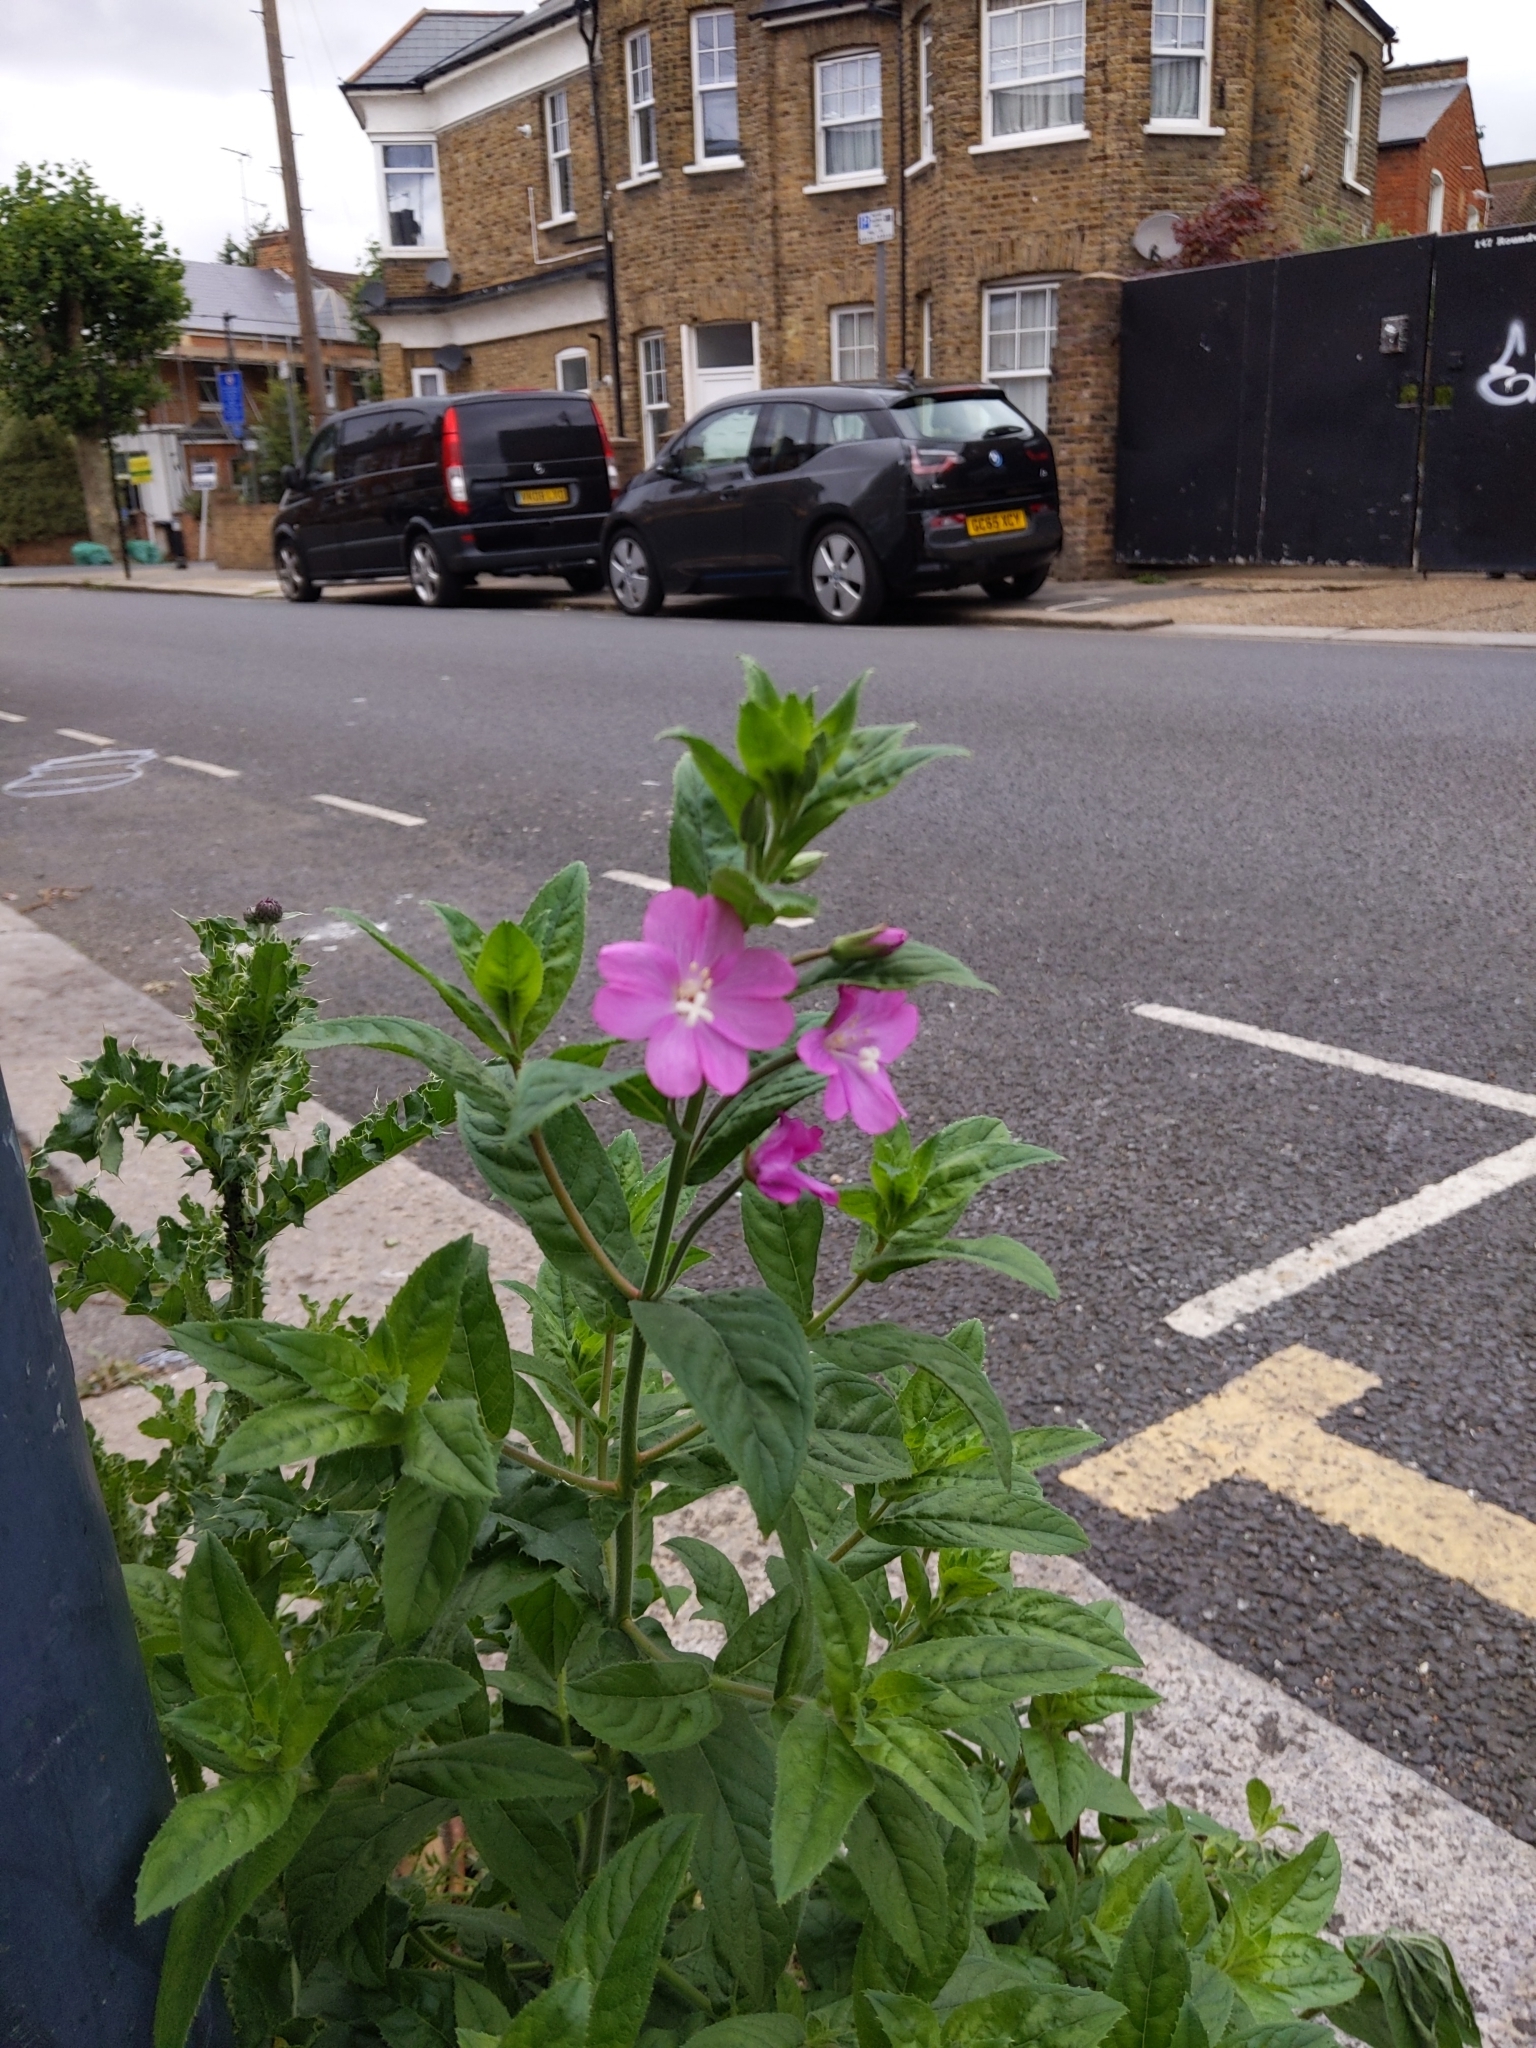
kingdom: Plantae
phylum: Tracheophyta
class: Magnoliopsida
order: Myrtales
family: Onagraceae
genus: Epilobium
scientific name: Epilobium hirsutum
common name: Great willowherb
